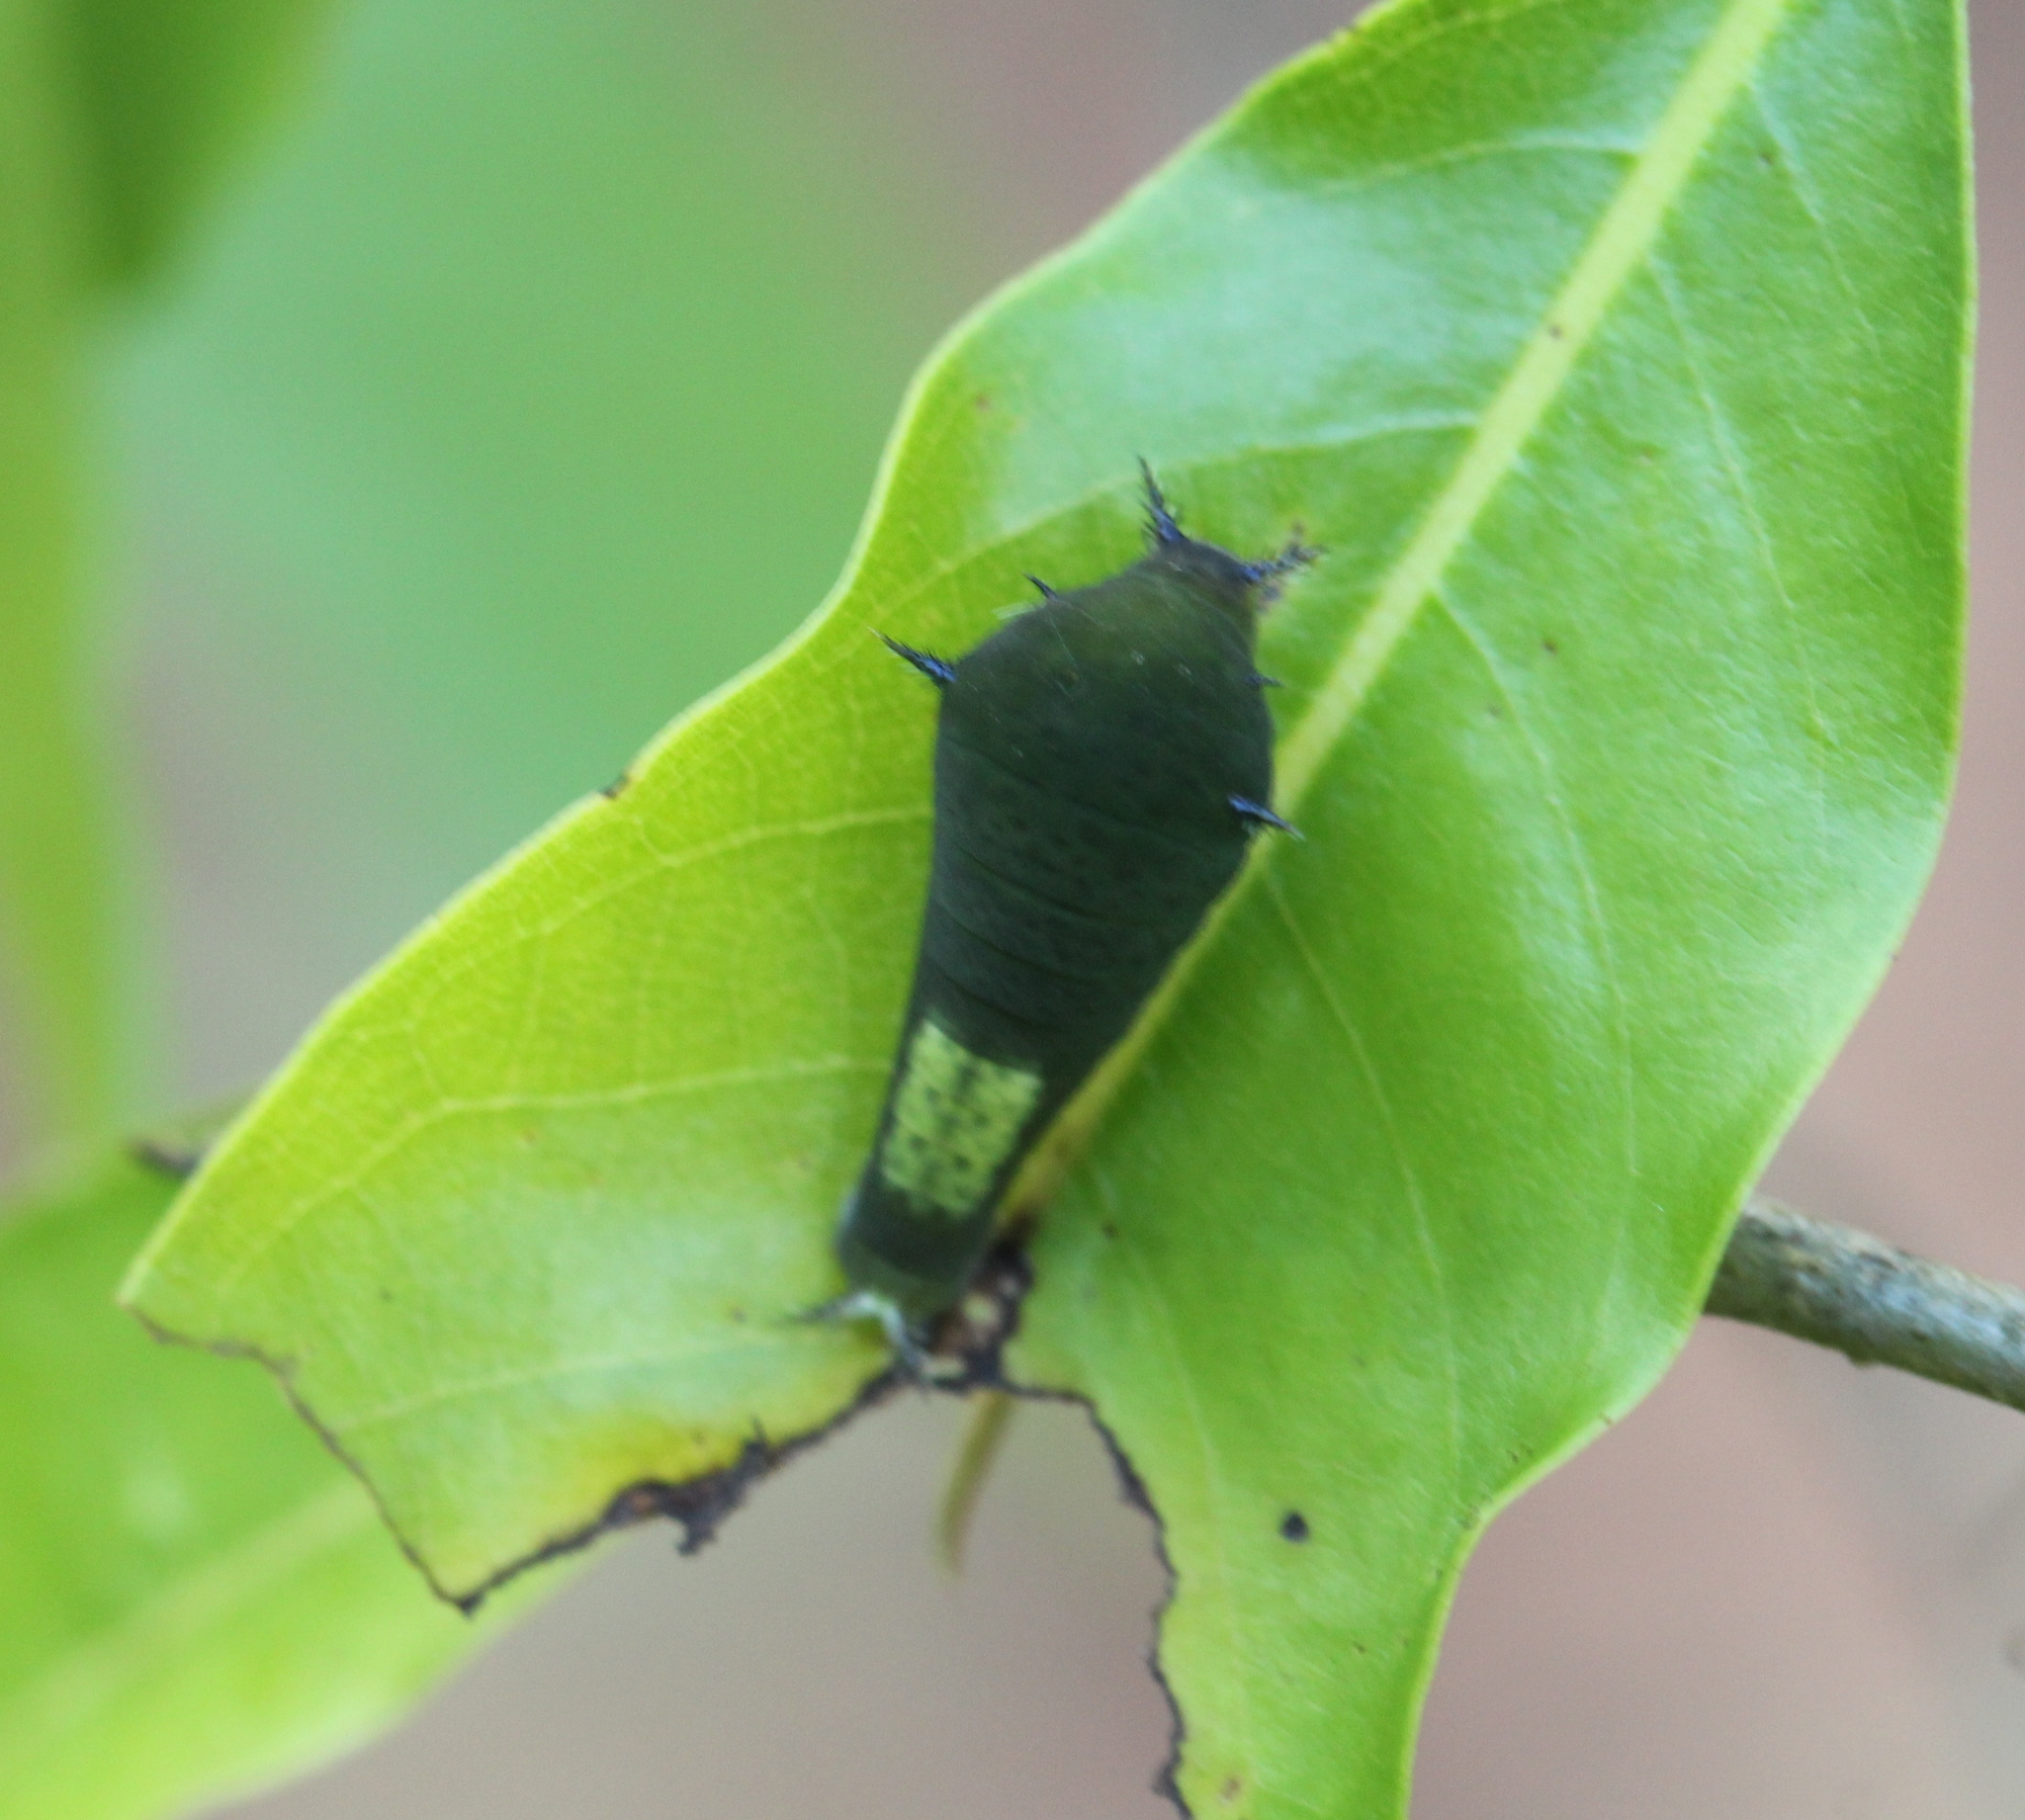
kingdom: Animalia
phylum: Arthropoda
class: Insecta
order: Lepidoptera
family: Papilionidae
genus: Graphium
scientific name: Graphium agamemnon
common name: Tailed jay
